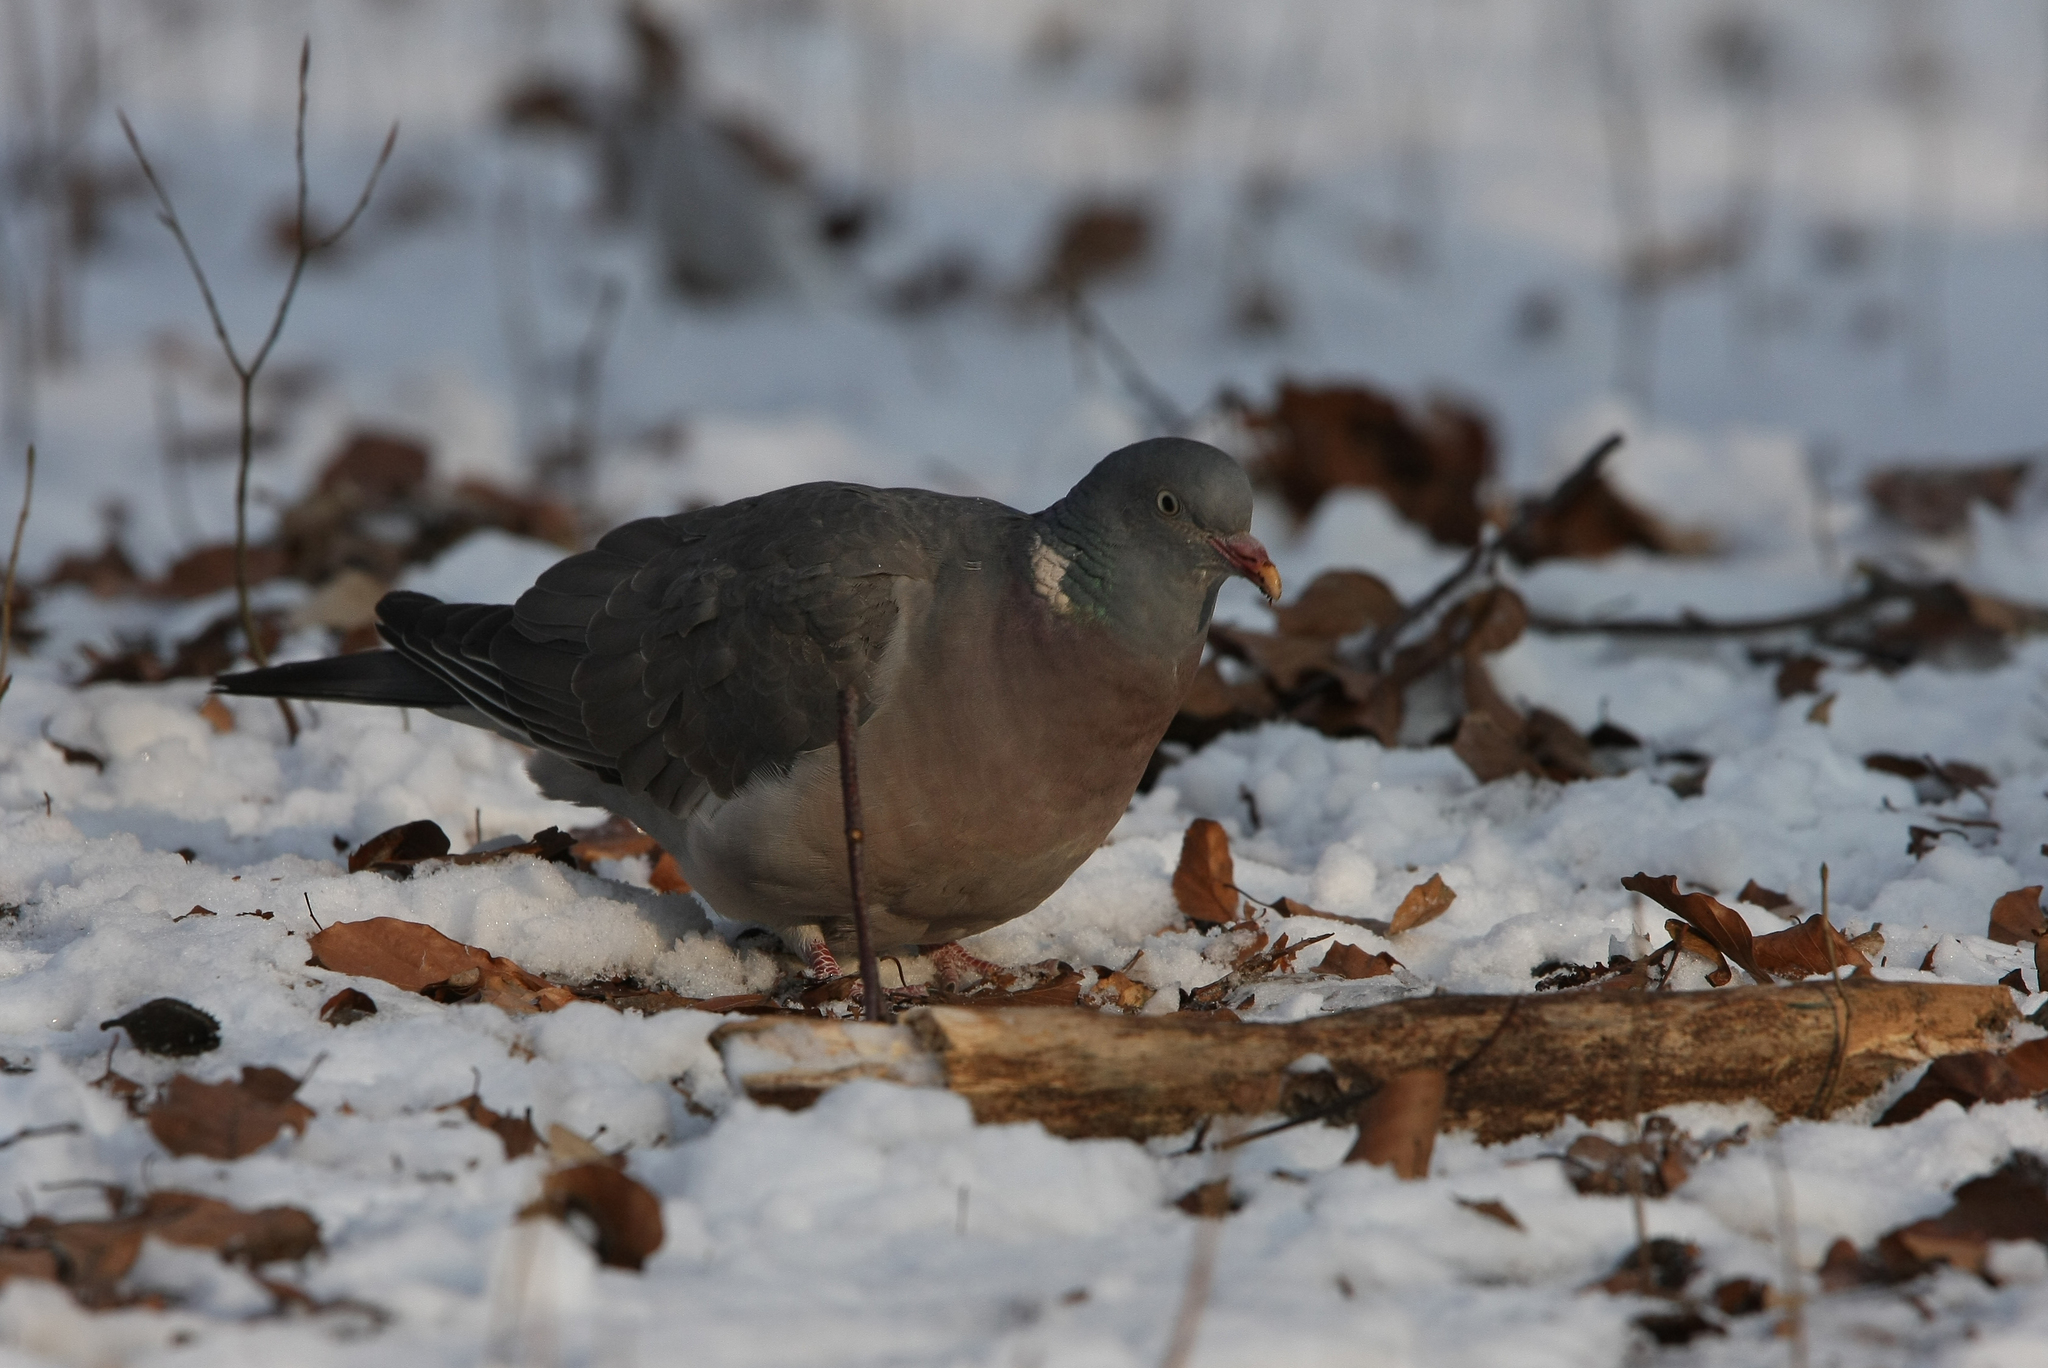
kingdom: Animalia
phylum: Chordata
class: Aves
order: Columbiformes
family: Columbidae
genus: Columba
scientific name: Columba palumbus
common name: Common wood pigeon
